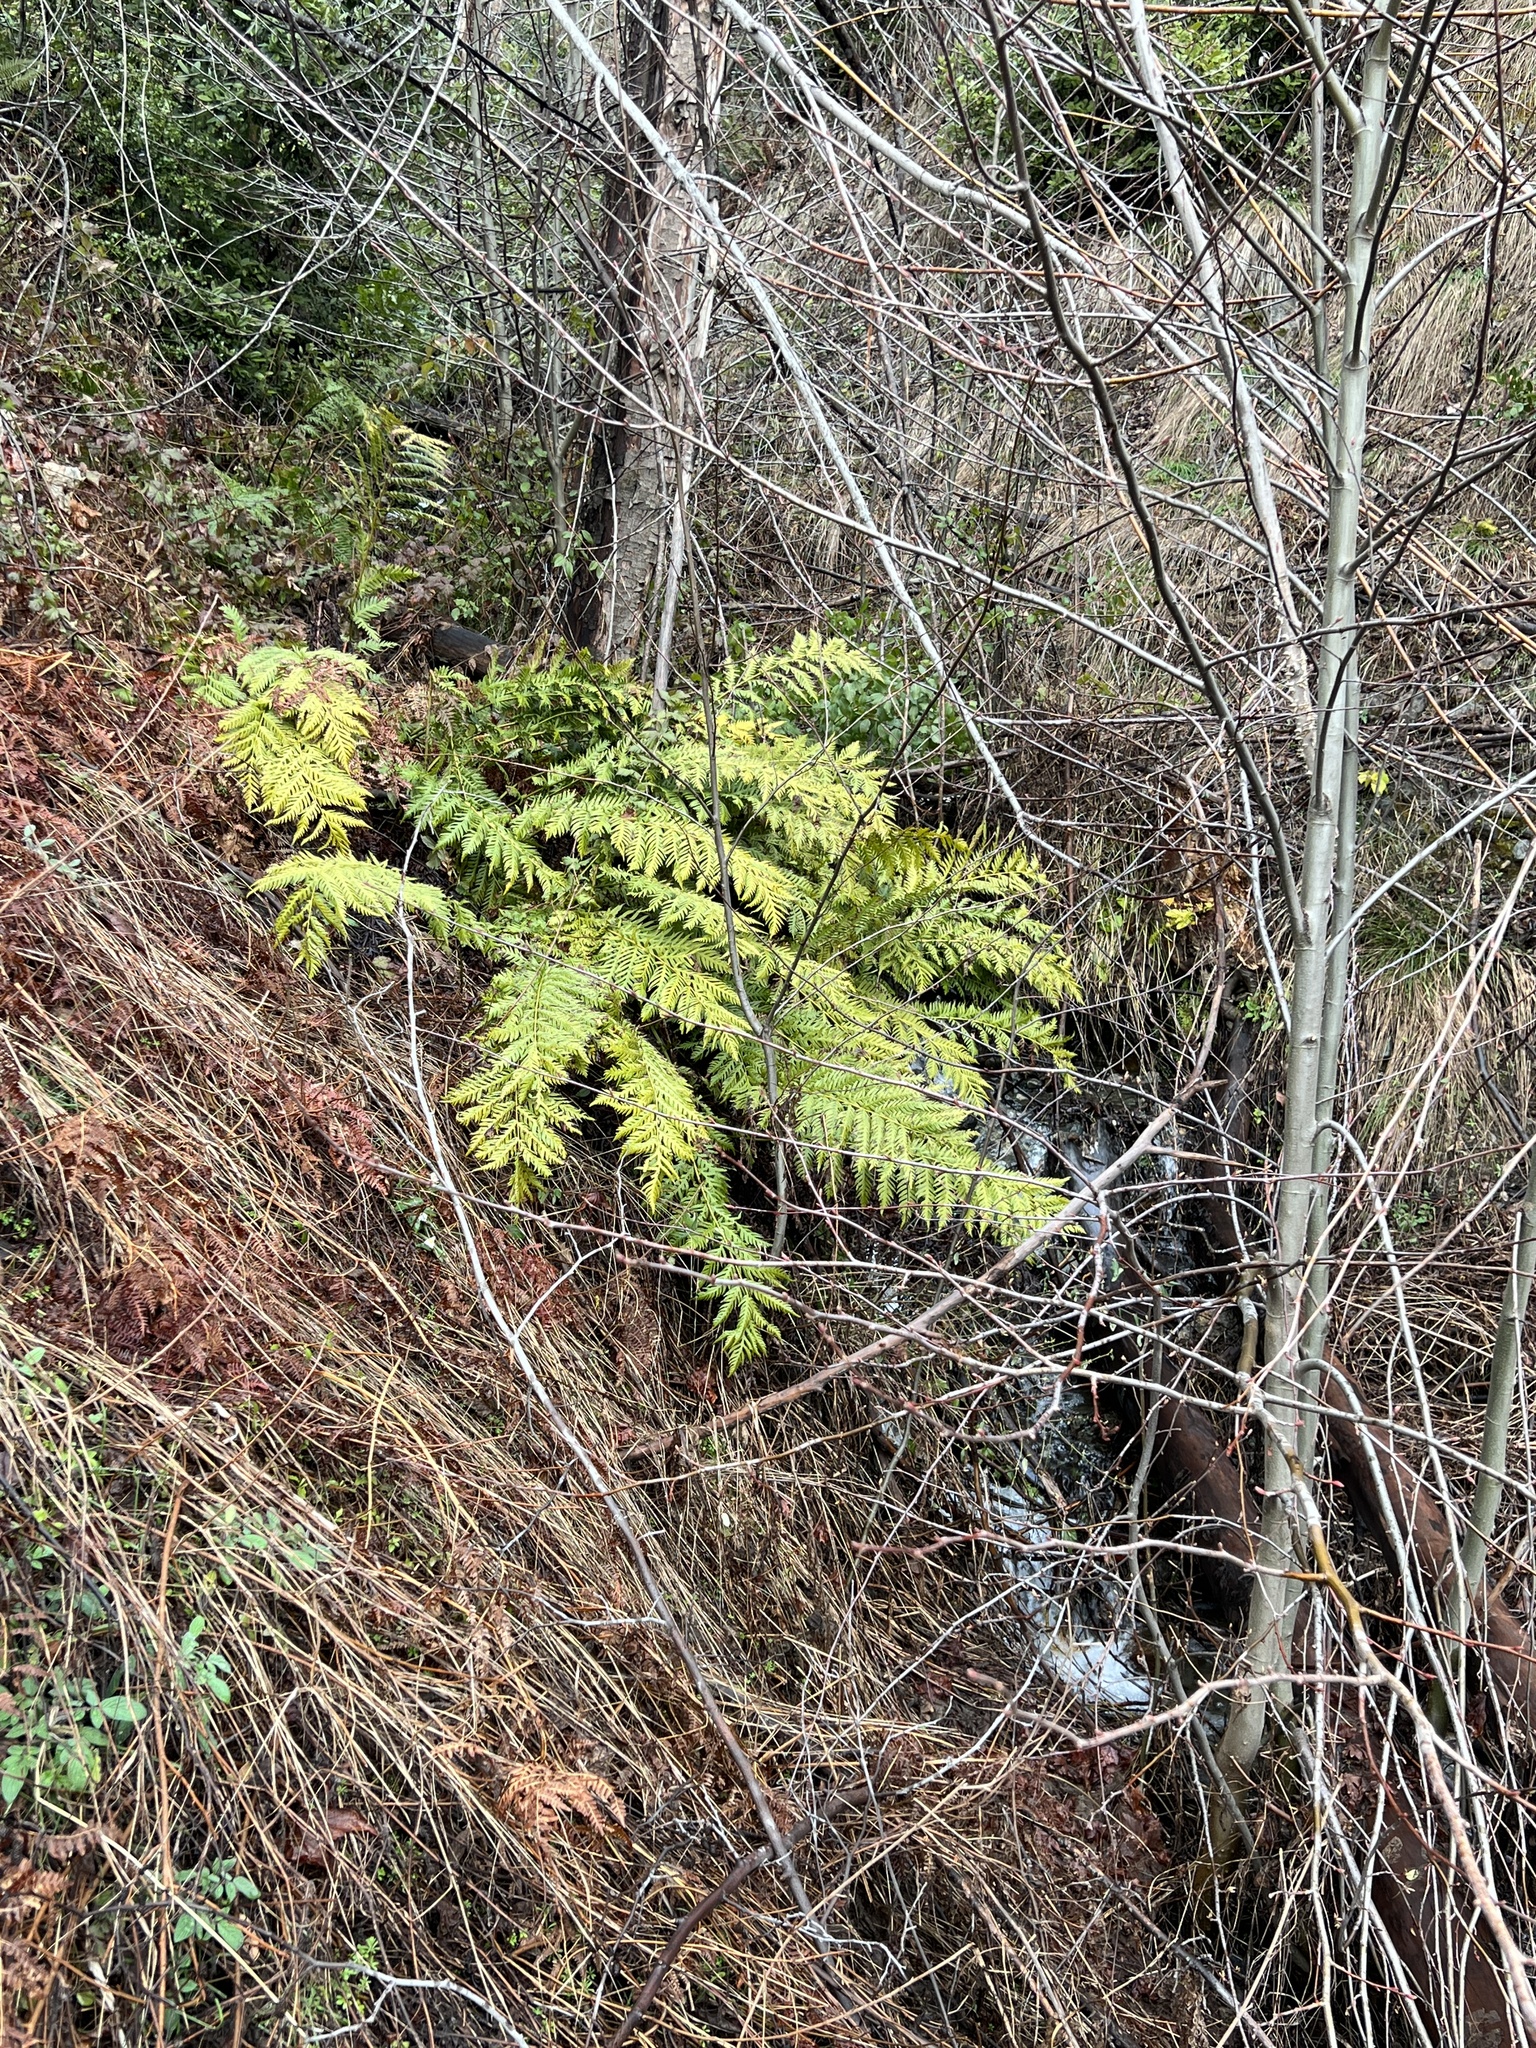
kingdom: Plantae
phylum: Tracheophyta
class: Polypodiopsida
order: Polypodiales
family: Blechnaceae
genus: Woodwardia
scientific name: Woodwardia fimbriata
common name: Giant chain fern
